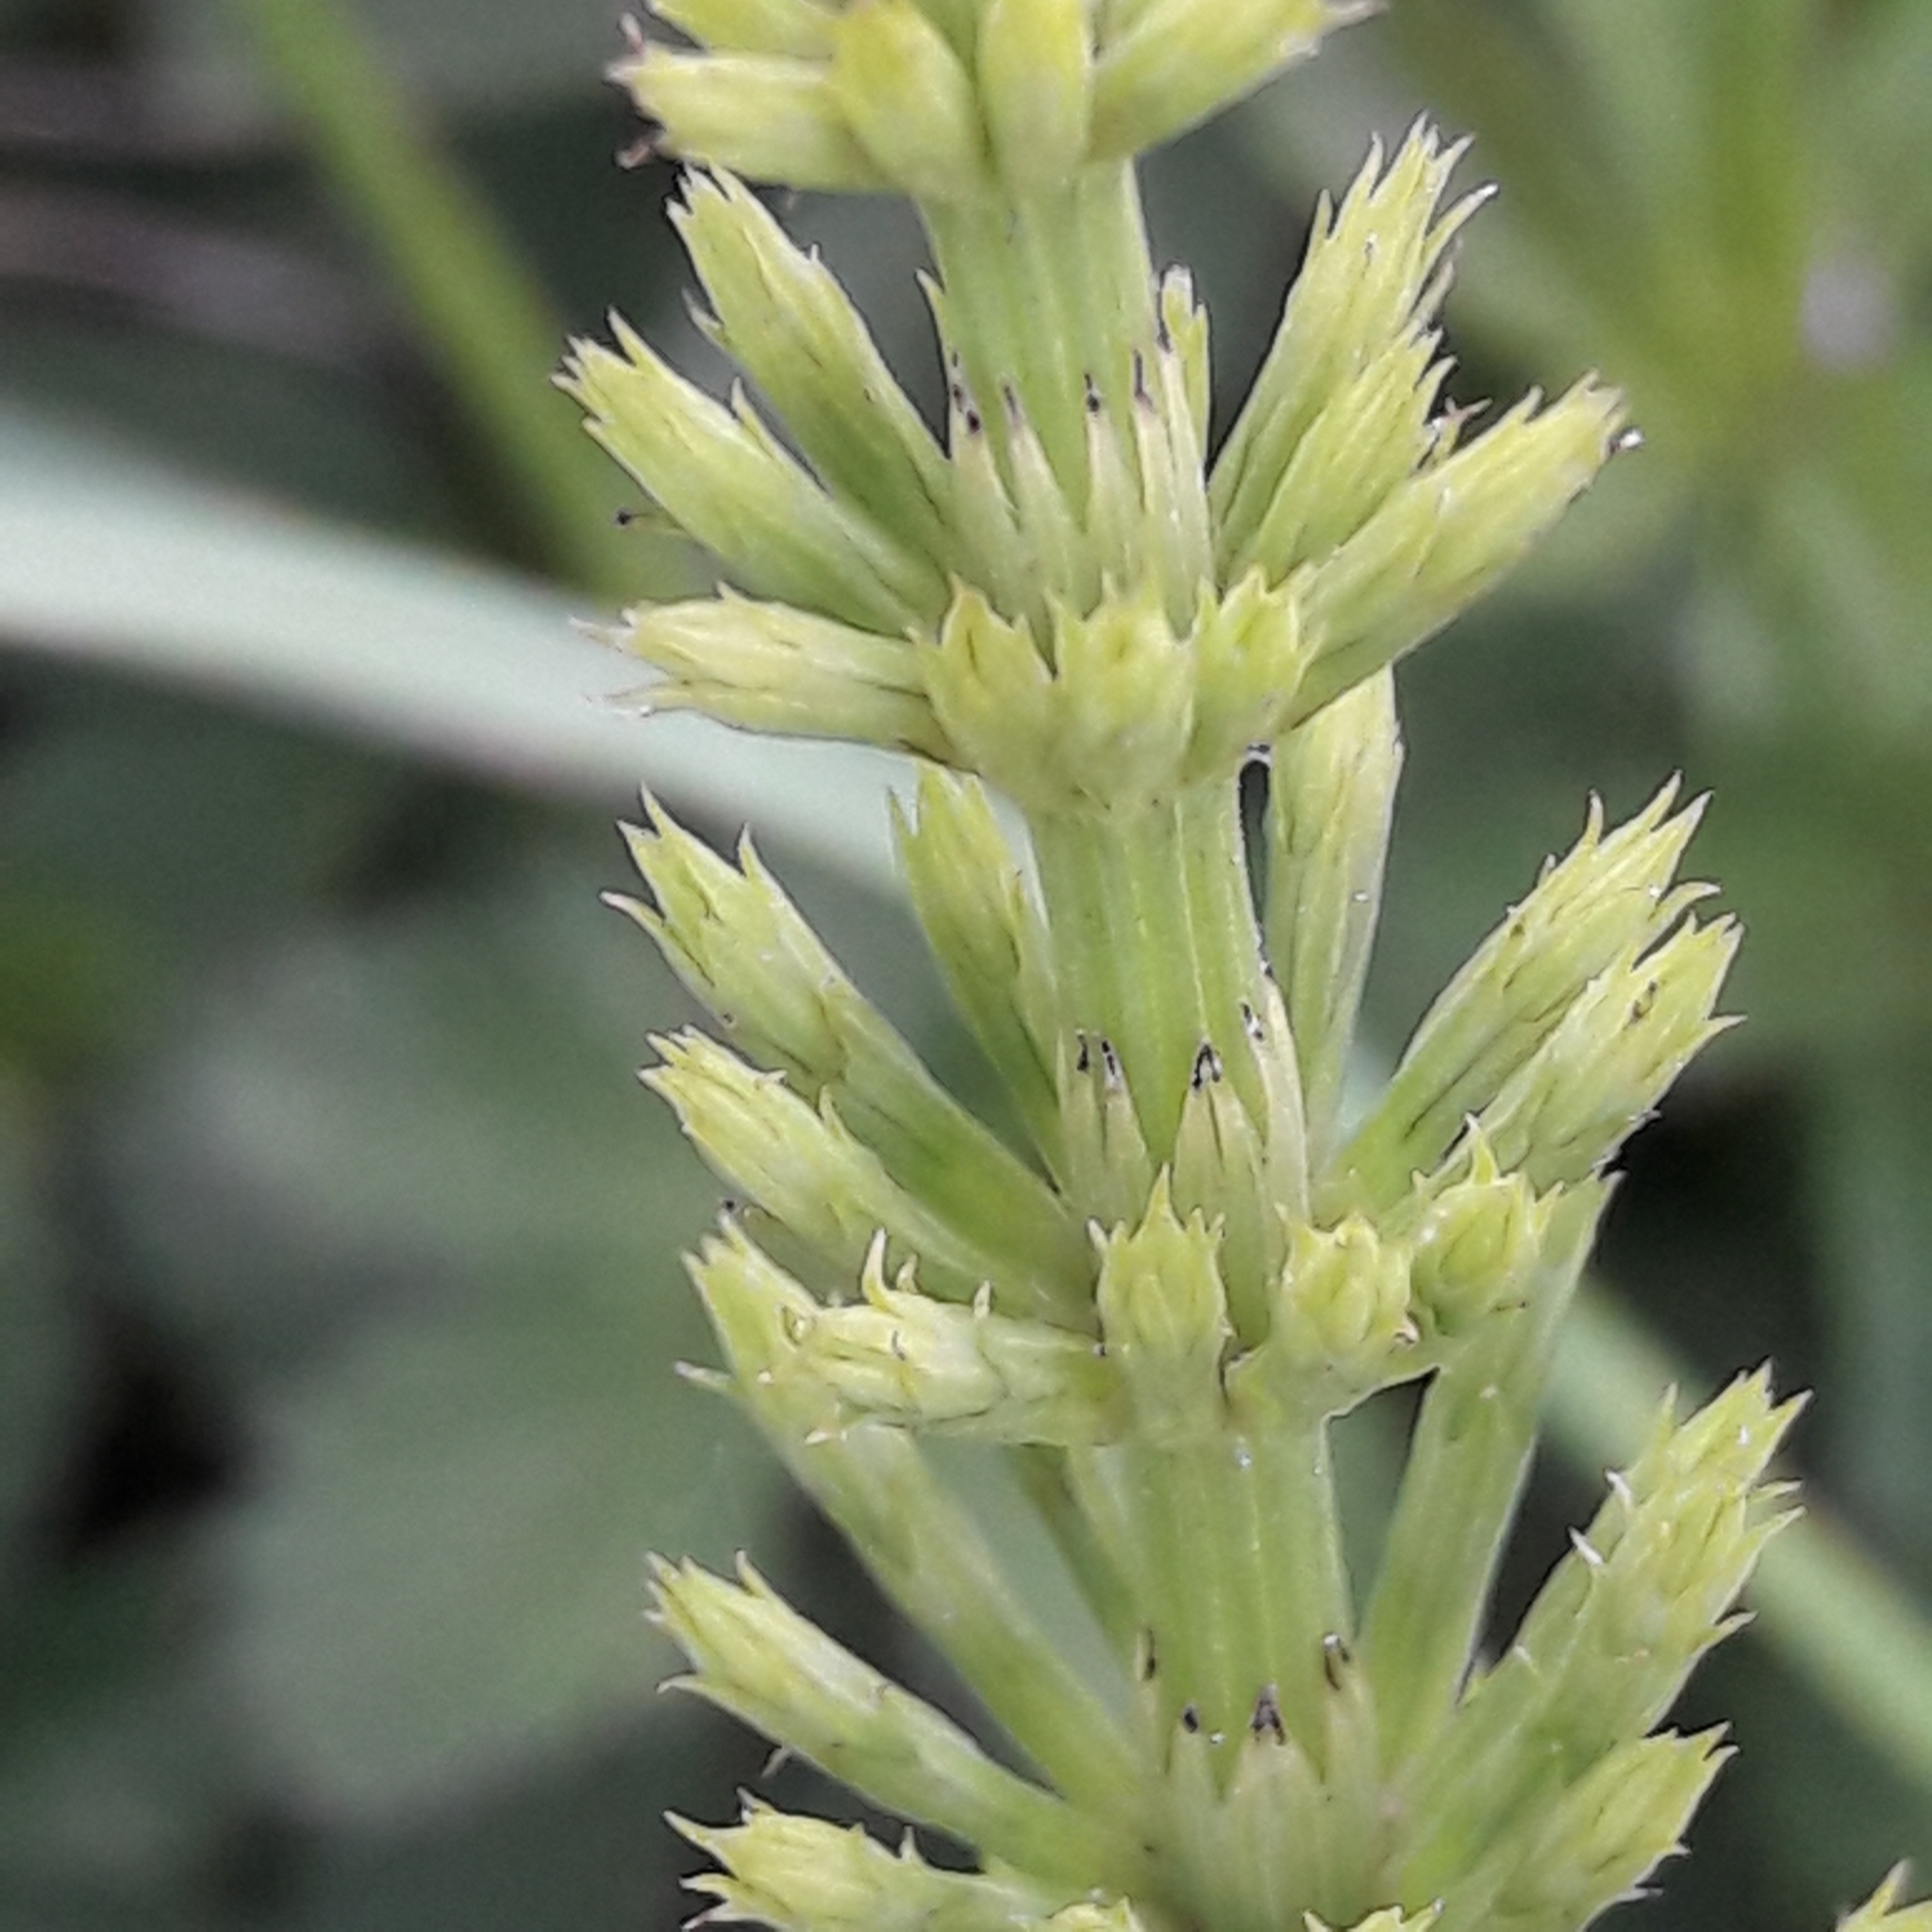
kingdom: Plantae
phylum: Tracheophyta
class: Polypodiopsida
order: Equisetales
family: Equisetaceae
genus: Equisetum
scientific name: Equisetum arvense
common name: Field horsetail
